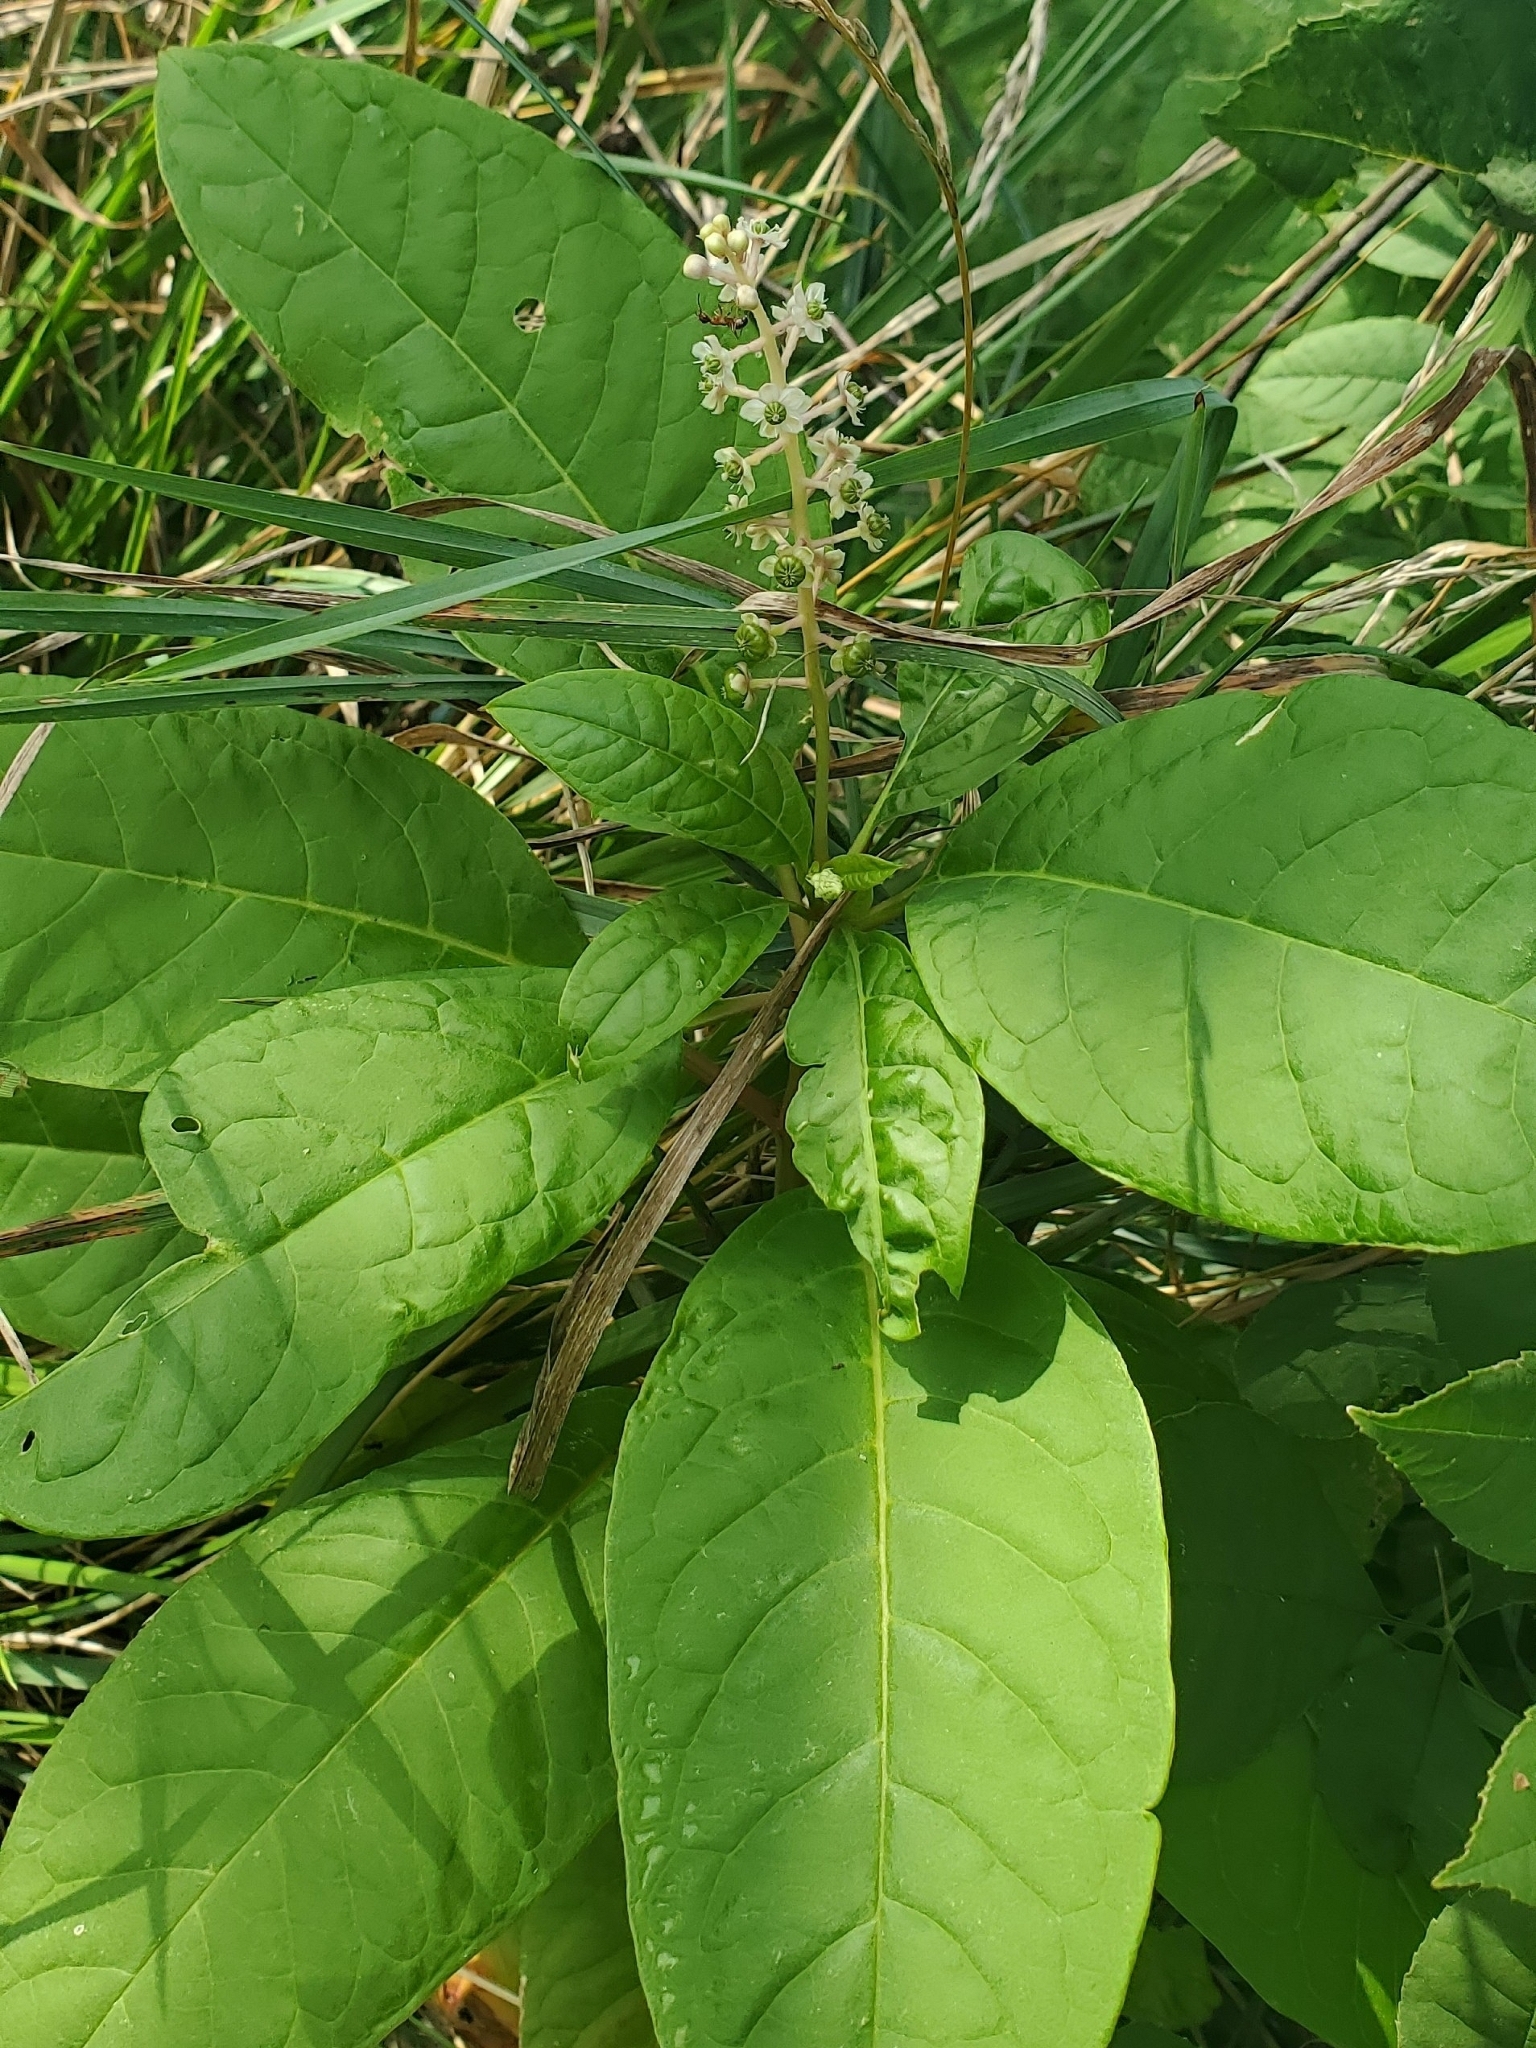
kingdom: Plantae
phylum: Tracheophyta
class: Magnoliopsida
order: Caryophyllales
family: Phytolaccaceae
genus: Phytolacca
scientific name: Phytolacca americana
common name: American pokeweed
